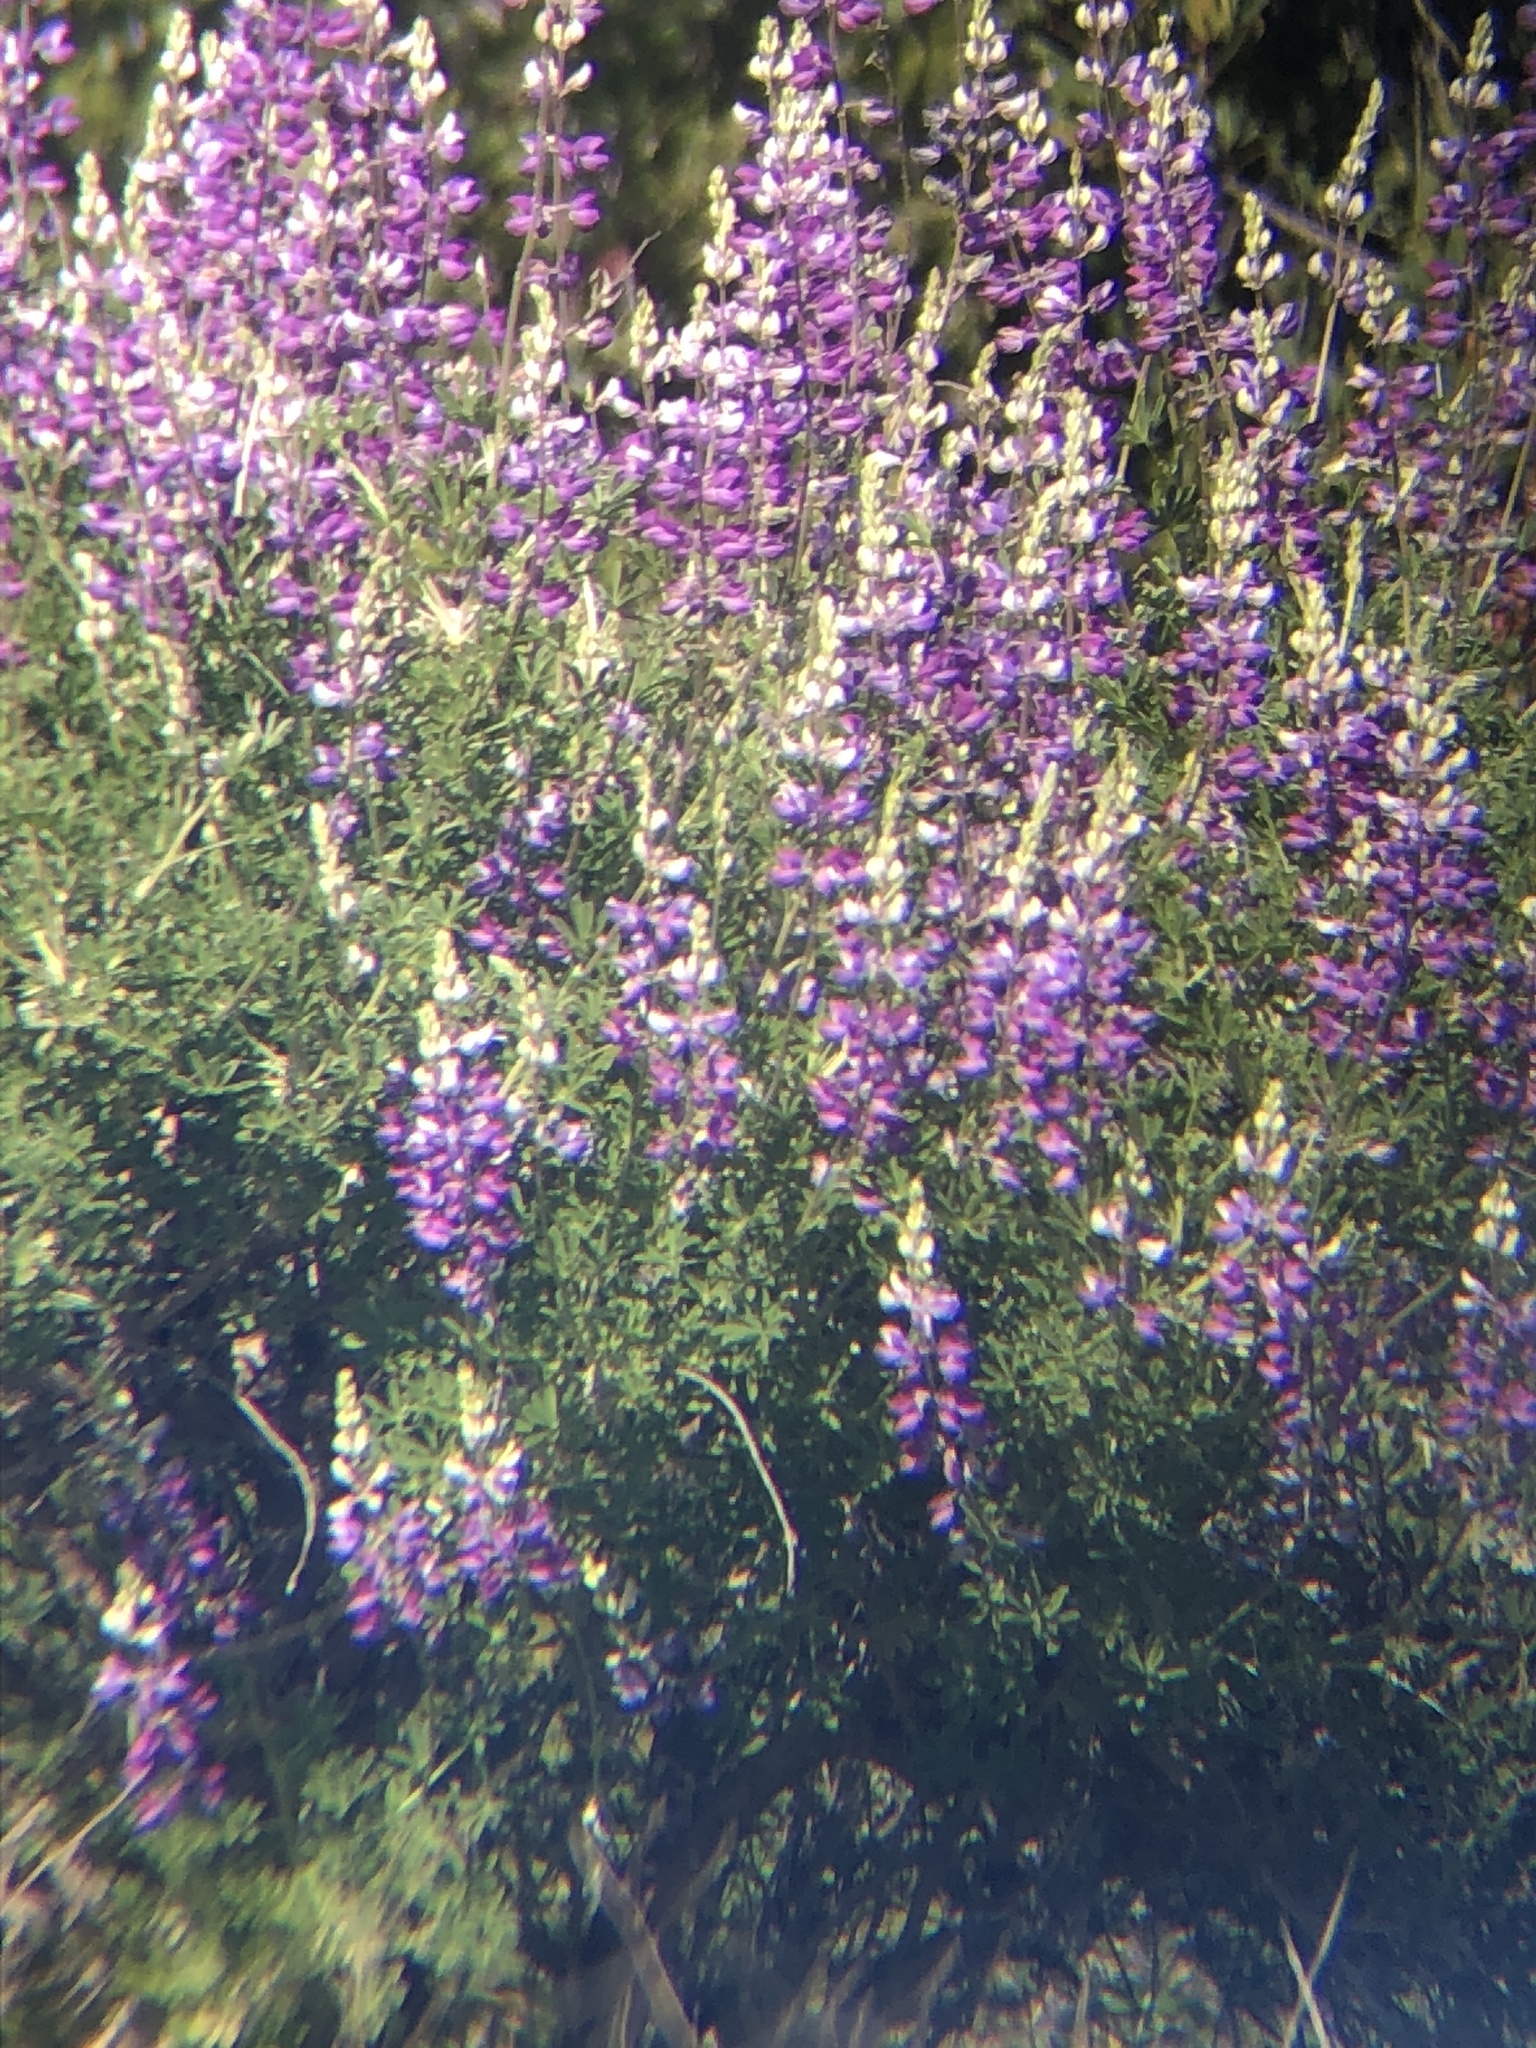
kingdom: Plantae
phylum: Tracheophyta
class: Magnoliopsida
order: Fabales
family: Fabaceae
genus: Lupinus
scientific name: Lupinus albifrons
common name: Foothill lupine
